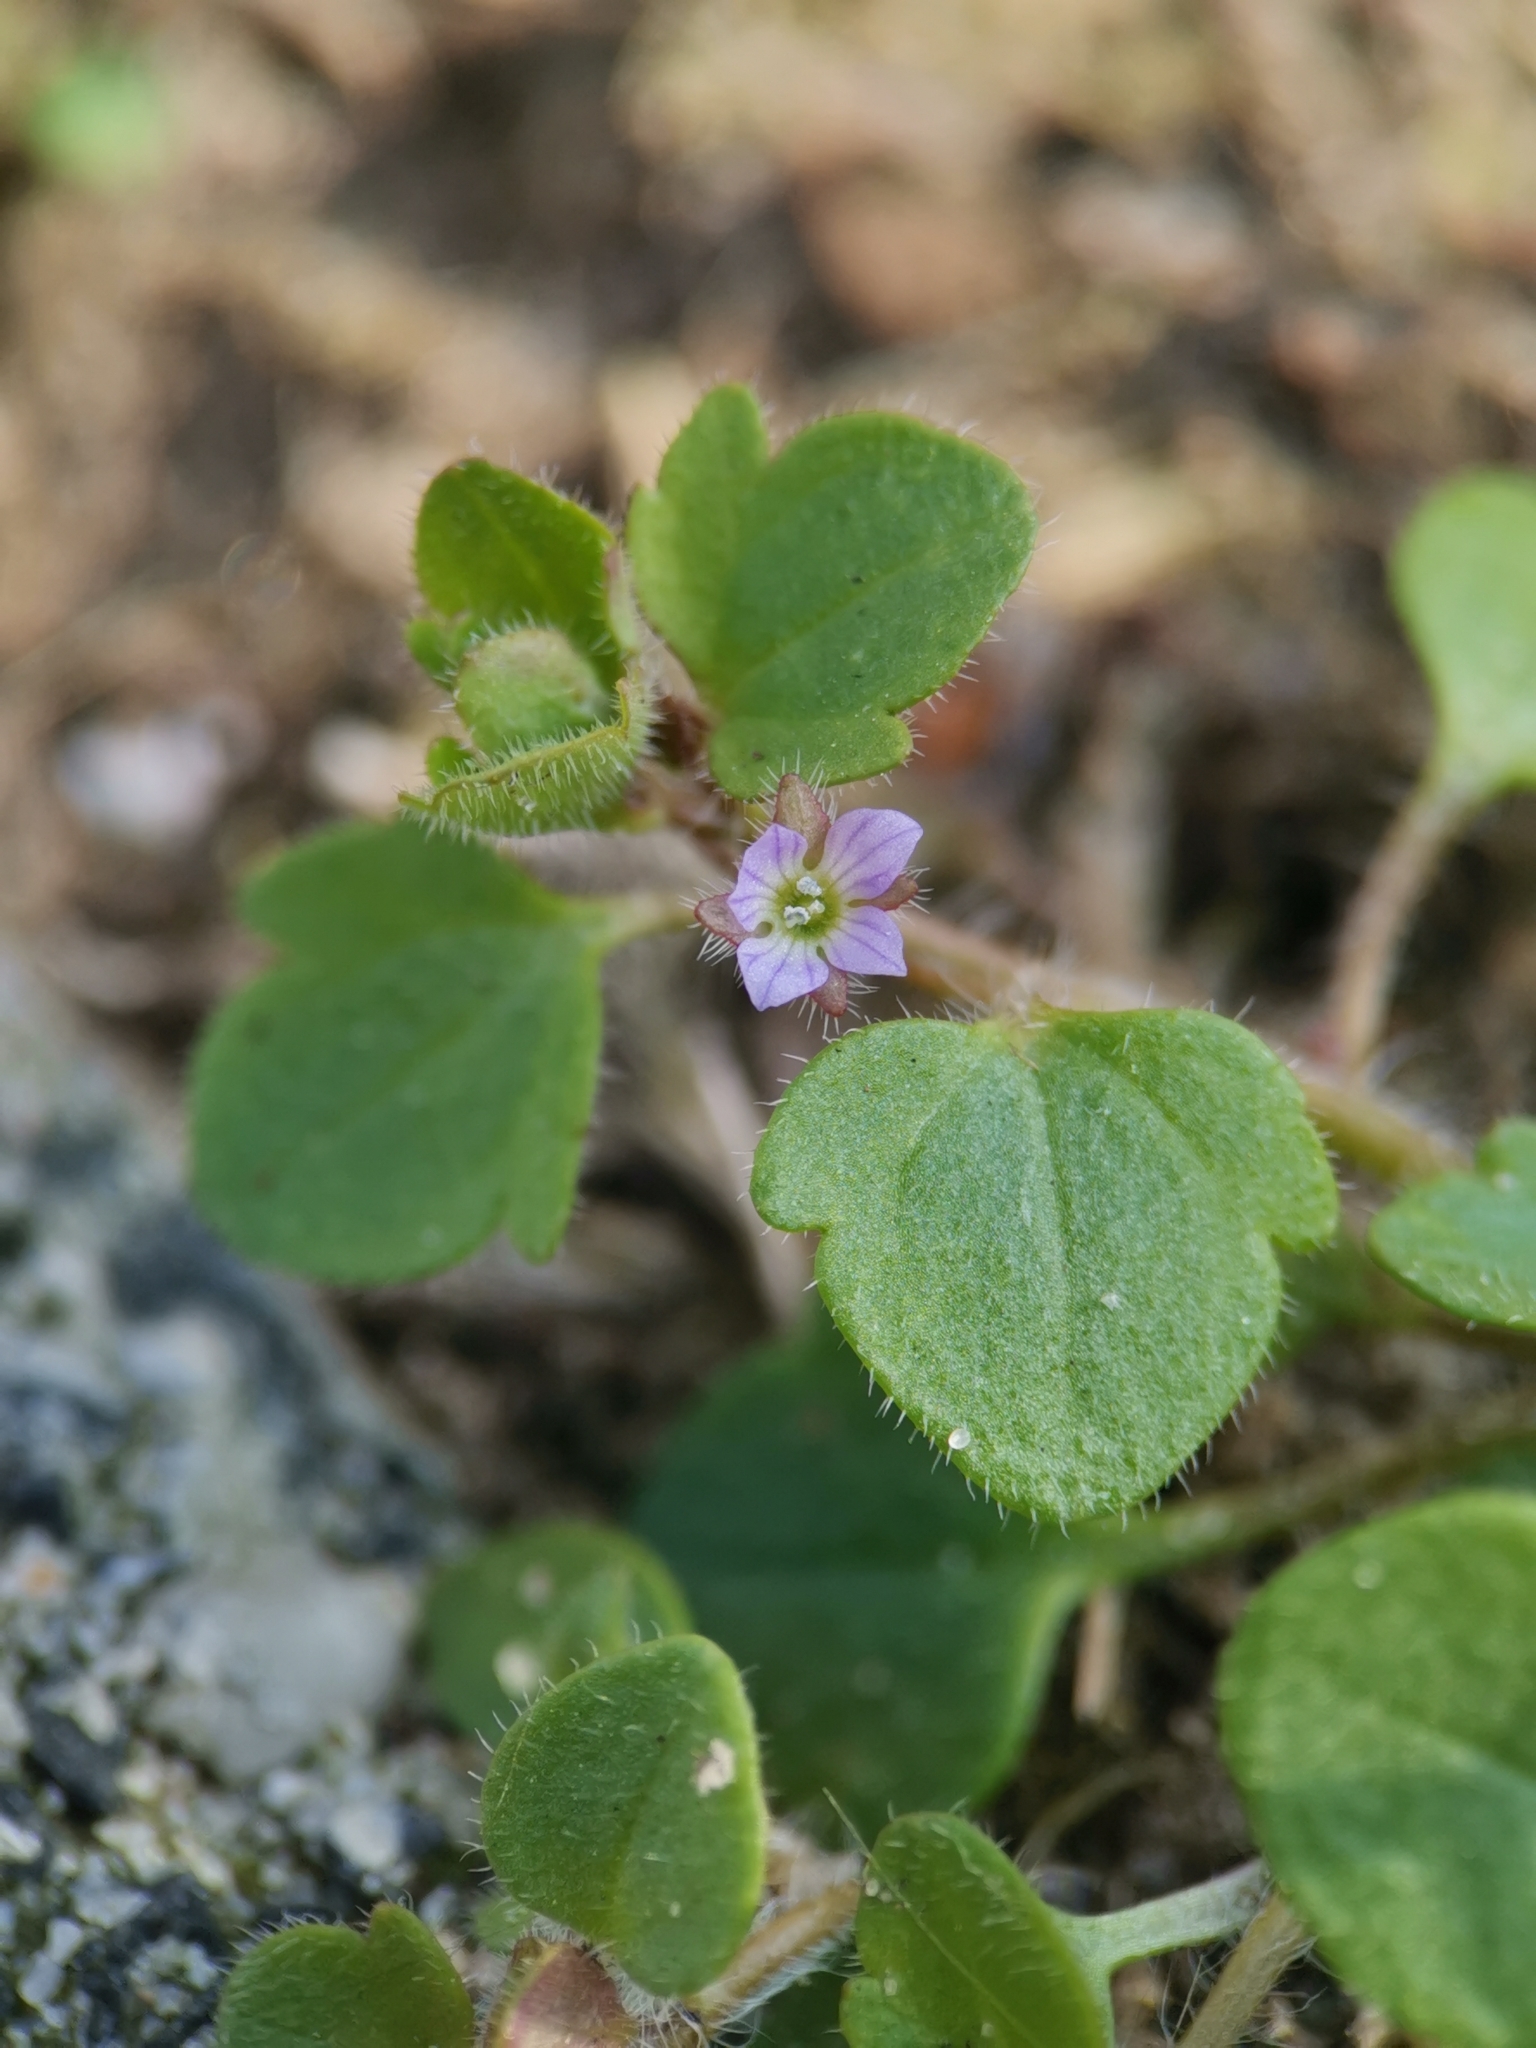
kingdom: Plantae
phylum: Tracheophyta
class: Magnoliopsida
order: Lamiales
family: Plantaginaceae
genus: Veronica
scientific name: Veronica sublobata
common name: False ivy-leaved speedwell
